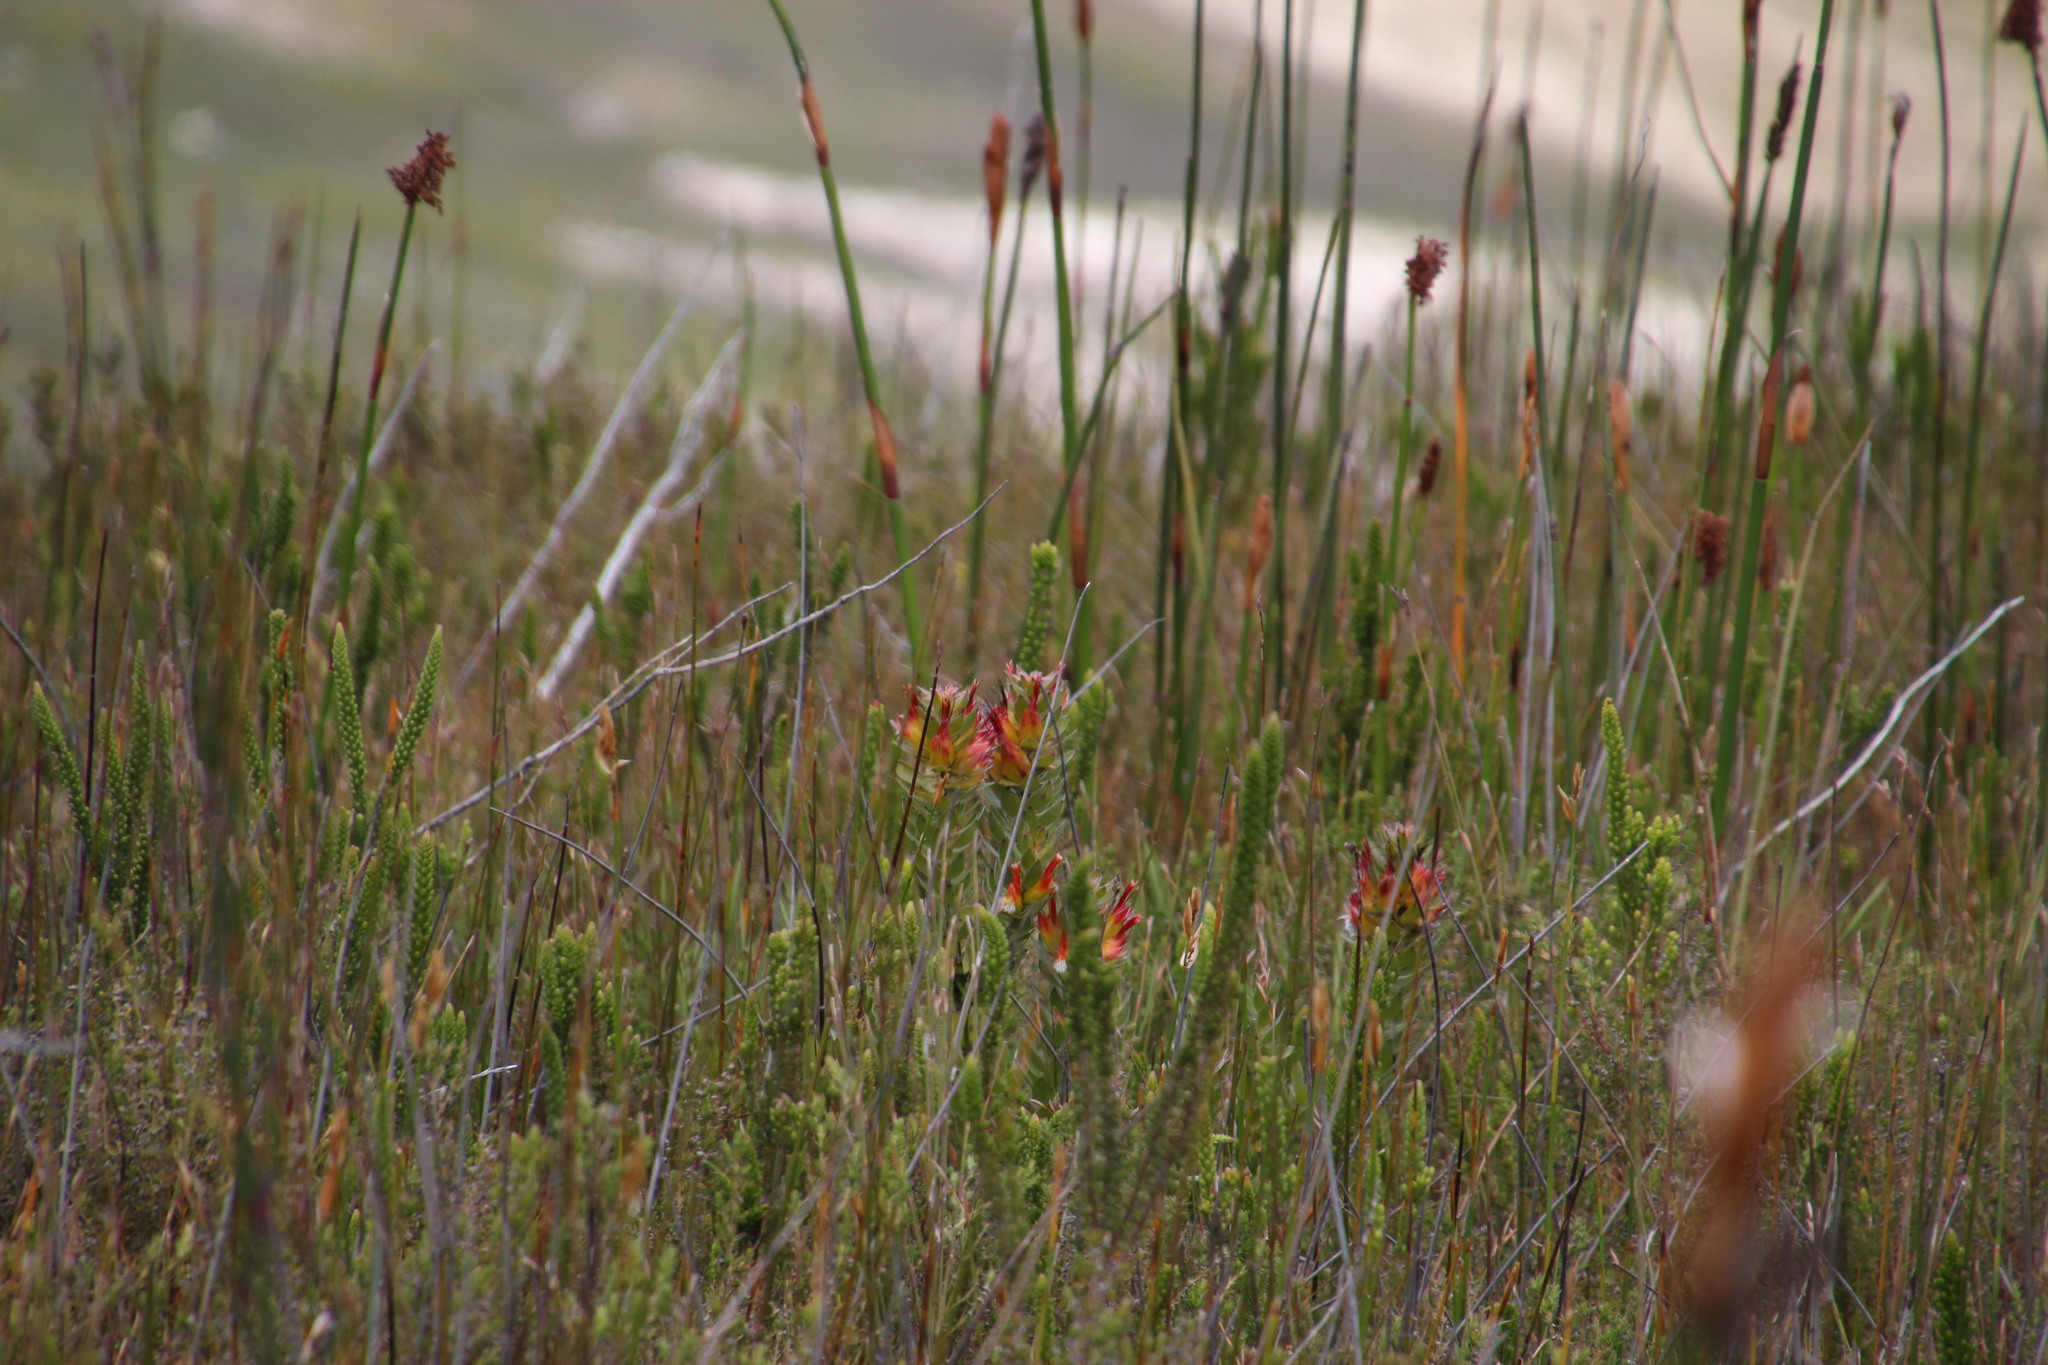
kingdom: Plantae
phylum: Tracheophyta
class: Magnoliopsida
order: Proteales
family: Proteaceae
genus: Mimetes
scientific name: Mimetes hirtus
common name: Marsh pagoda
